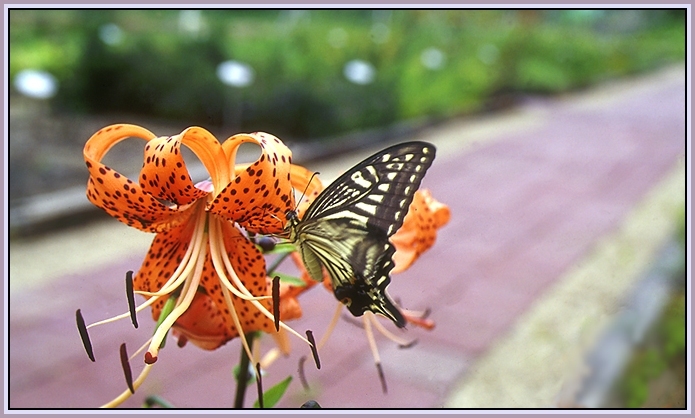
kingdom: Animalia
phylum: Arthropoda
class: Insecta
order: Lepidoptera
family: Papilionidae
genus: Papilio
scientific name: Papilio xuthus
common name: Asian swallowtail
